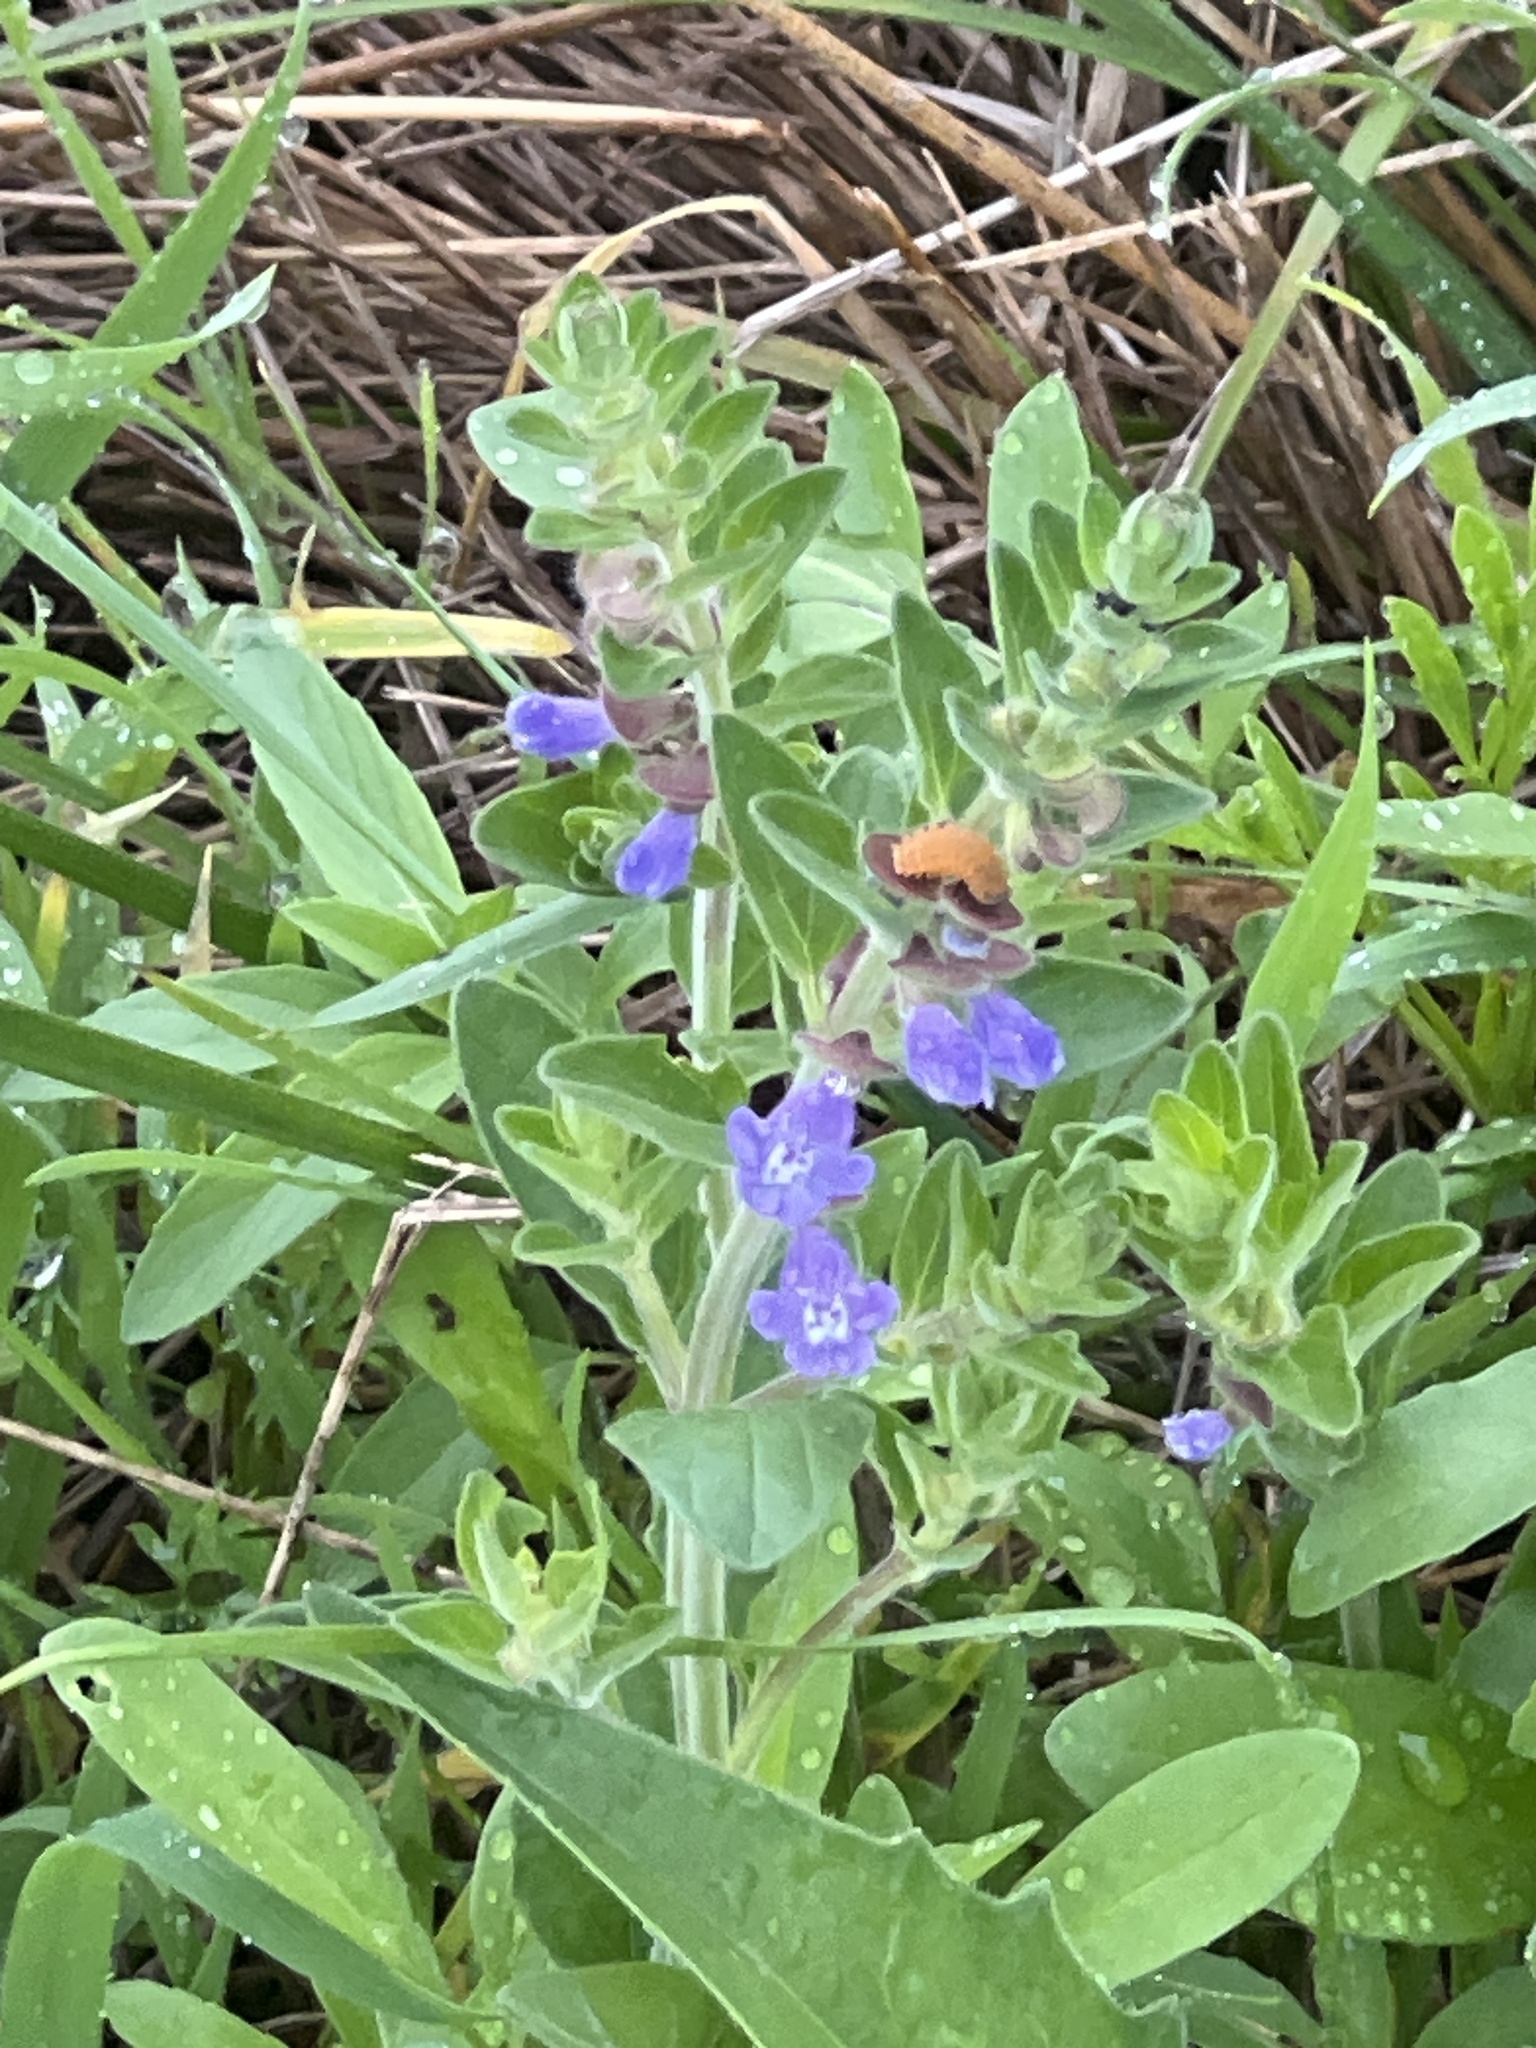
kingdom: Plantae
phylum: Tracheophyta
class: Magnoliopsida
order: Lamiales
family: Lamiaceae
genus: Scutellaria
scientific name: Scutellaria drummondii
